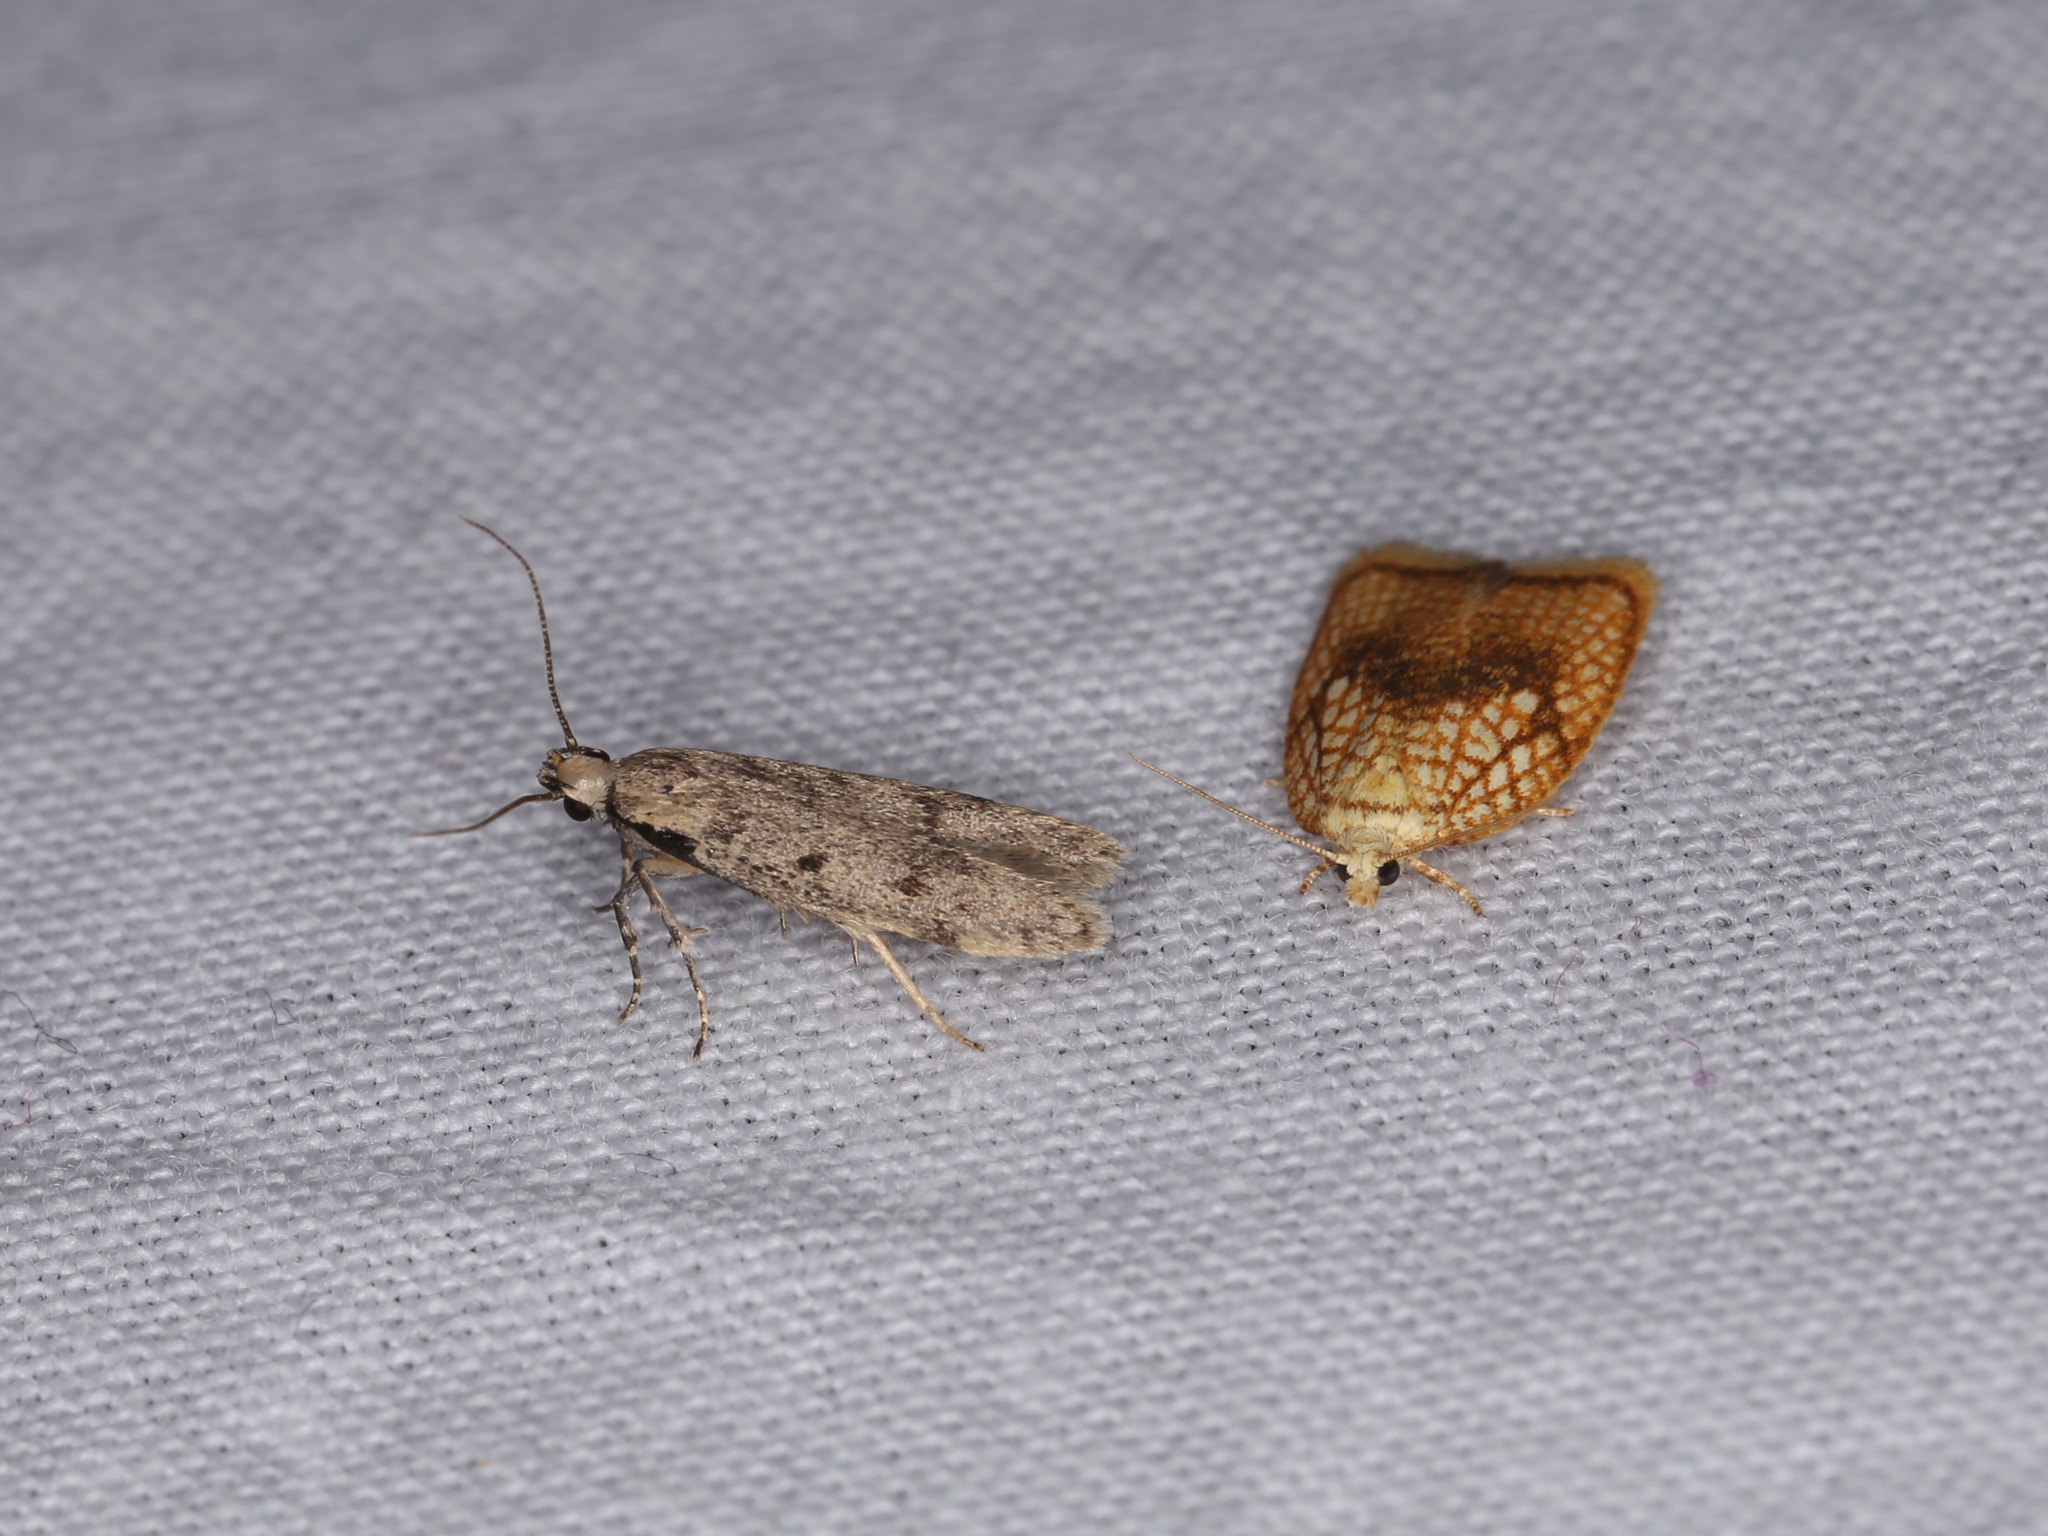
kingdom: Animalia
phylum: Arthropoda
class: Insecta
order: Lepidoptera
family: Tortricidae
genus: Acleris
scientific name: Acleris forsskaleana
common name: Maple button
